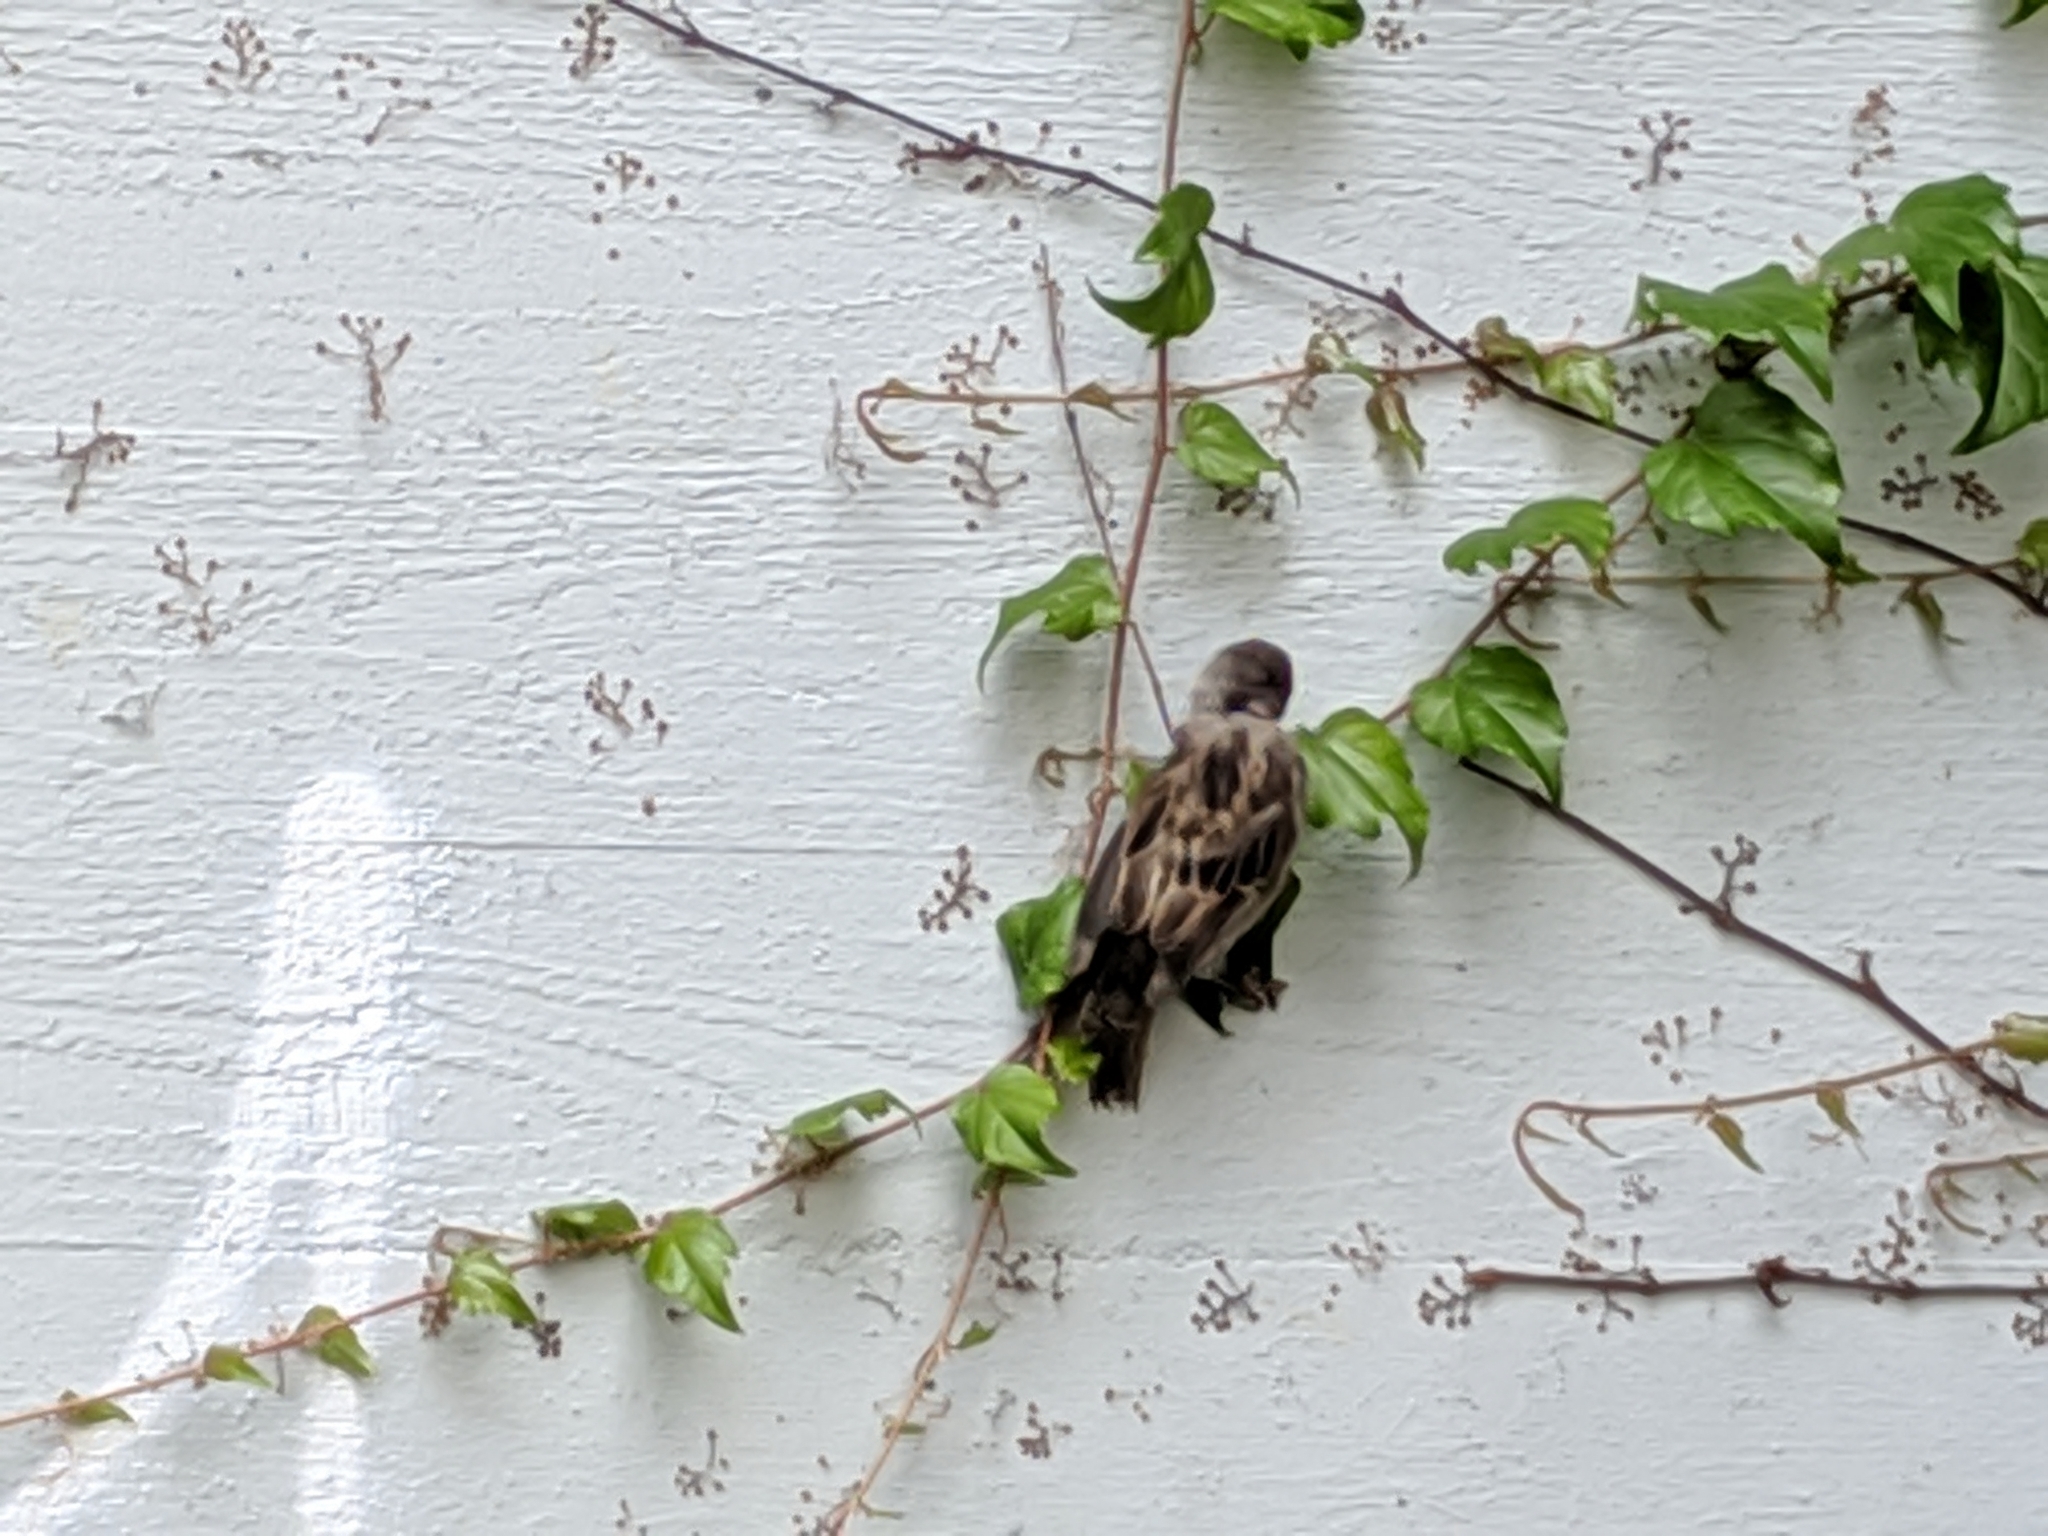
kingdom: Animalia
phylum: Chordata
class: Aves
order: Passeriformes
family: Passeridae
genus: Passer
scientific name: Passer domesticus
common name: House sparrow
